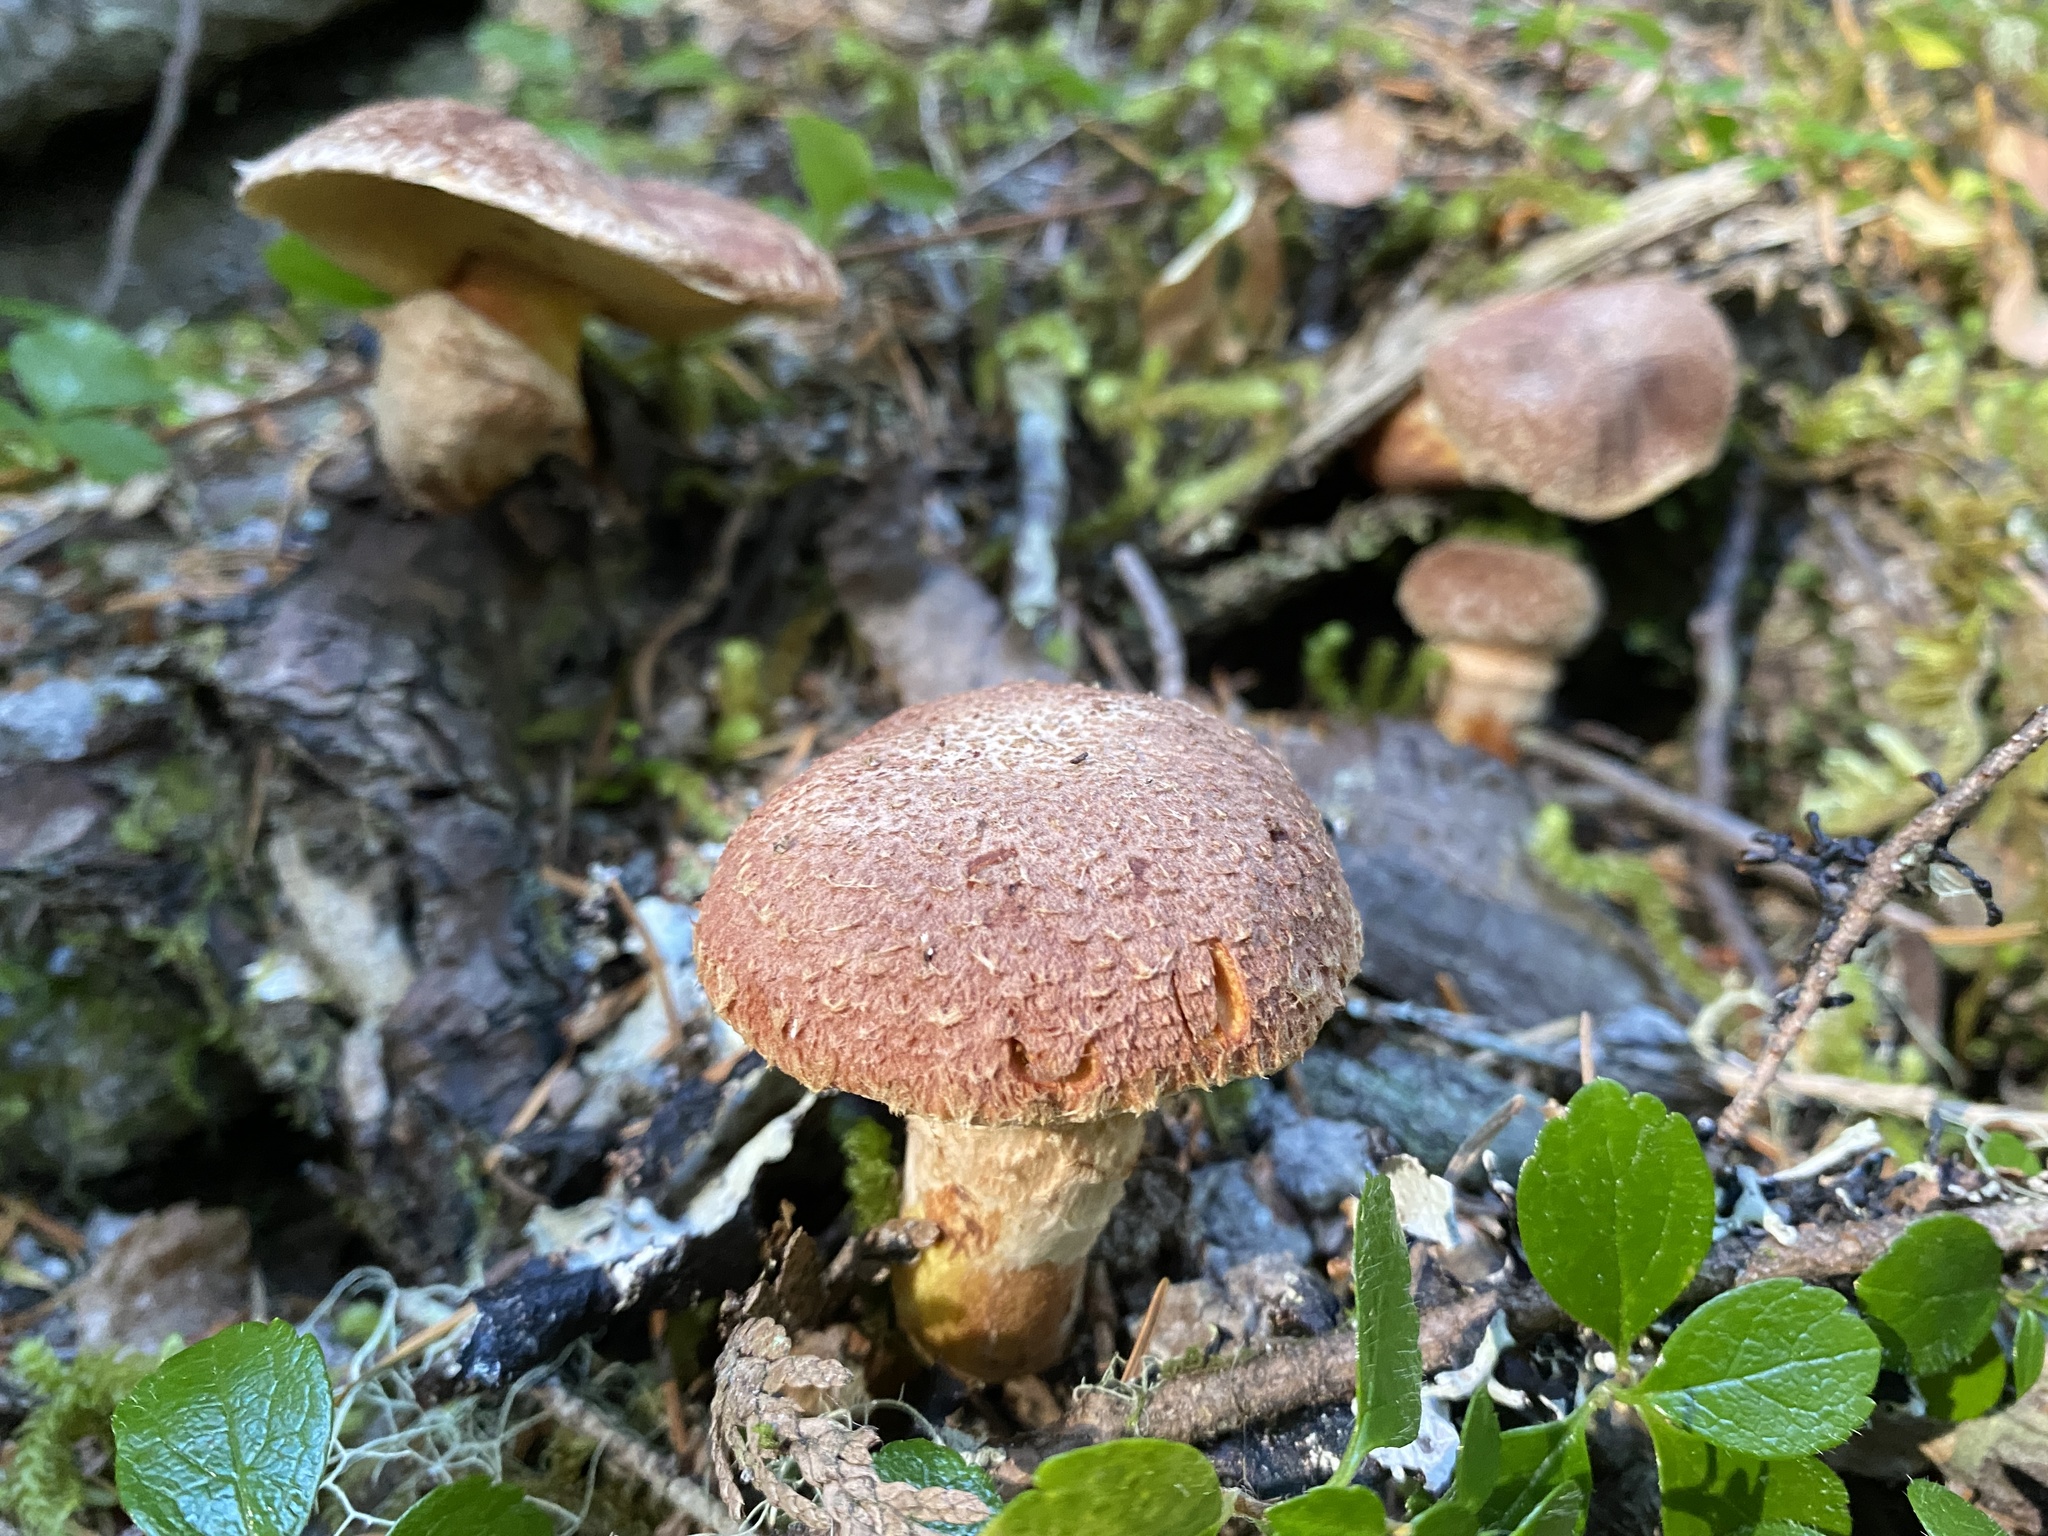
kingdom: Fungi
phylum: Basidiomycota
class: Agaricomycetes
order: Boletales
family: Suillaceae
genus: Suillus
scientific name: Suillus lakei
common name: Western painted suillus
